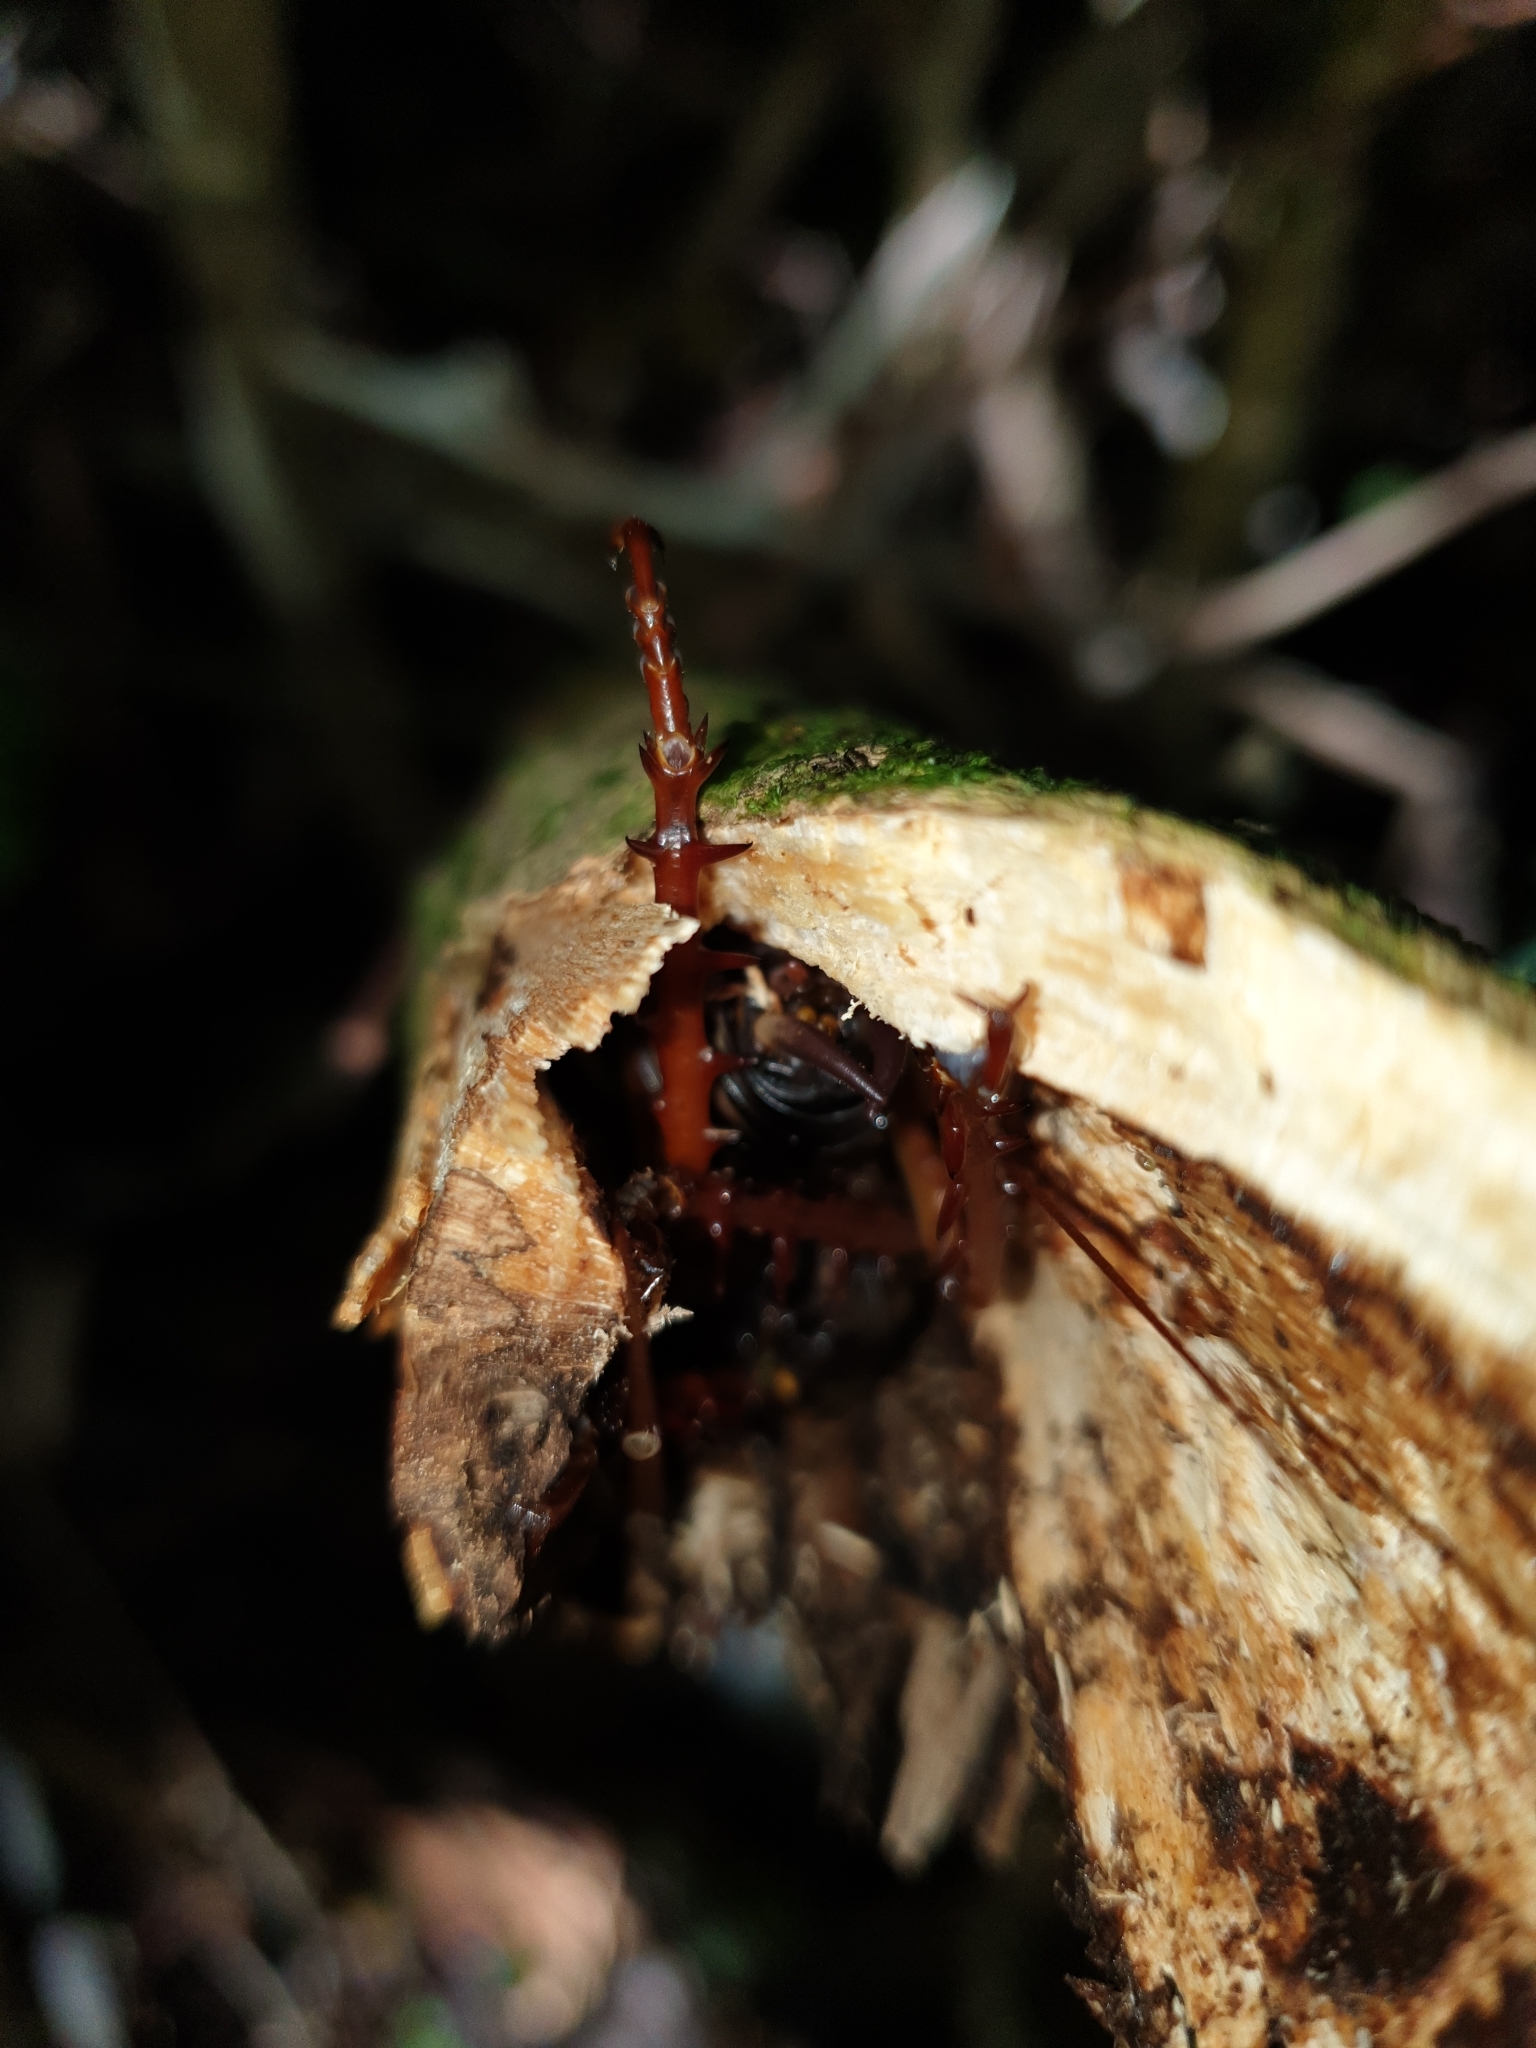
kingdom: Animalia
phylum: Arthropoda
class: Insecta
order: Orthoptera
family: Anostostomatidae
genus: Hemideina
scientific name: Hemideina crassidens
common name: Wellington tree weta
